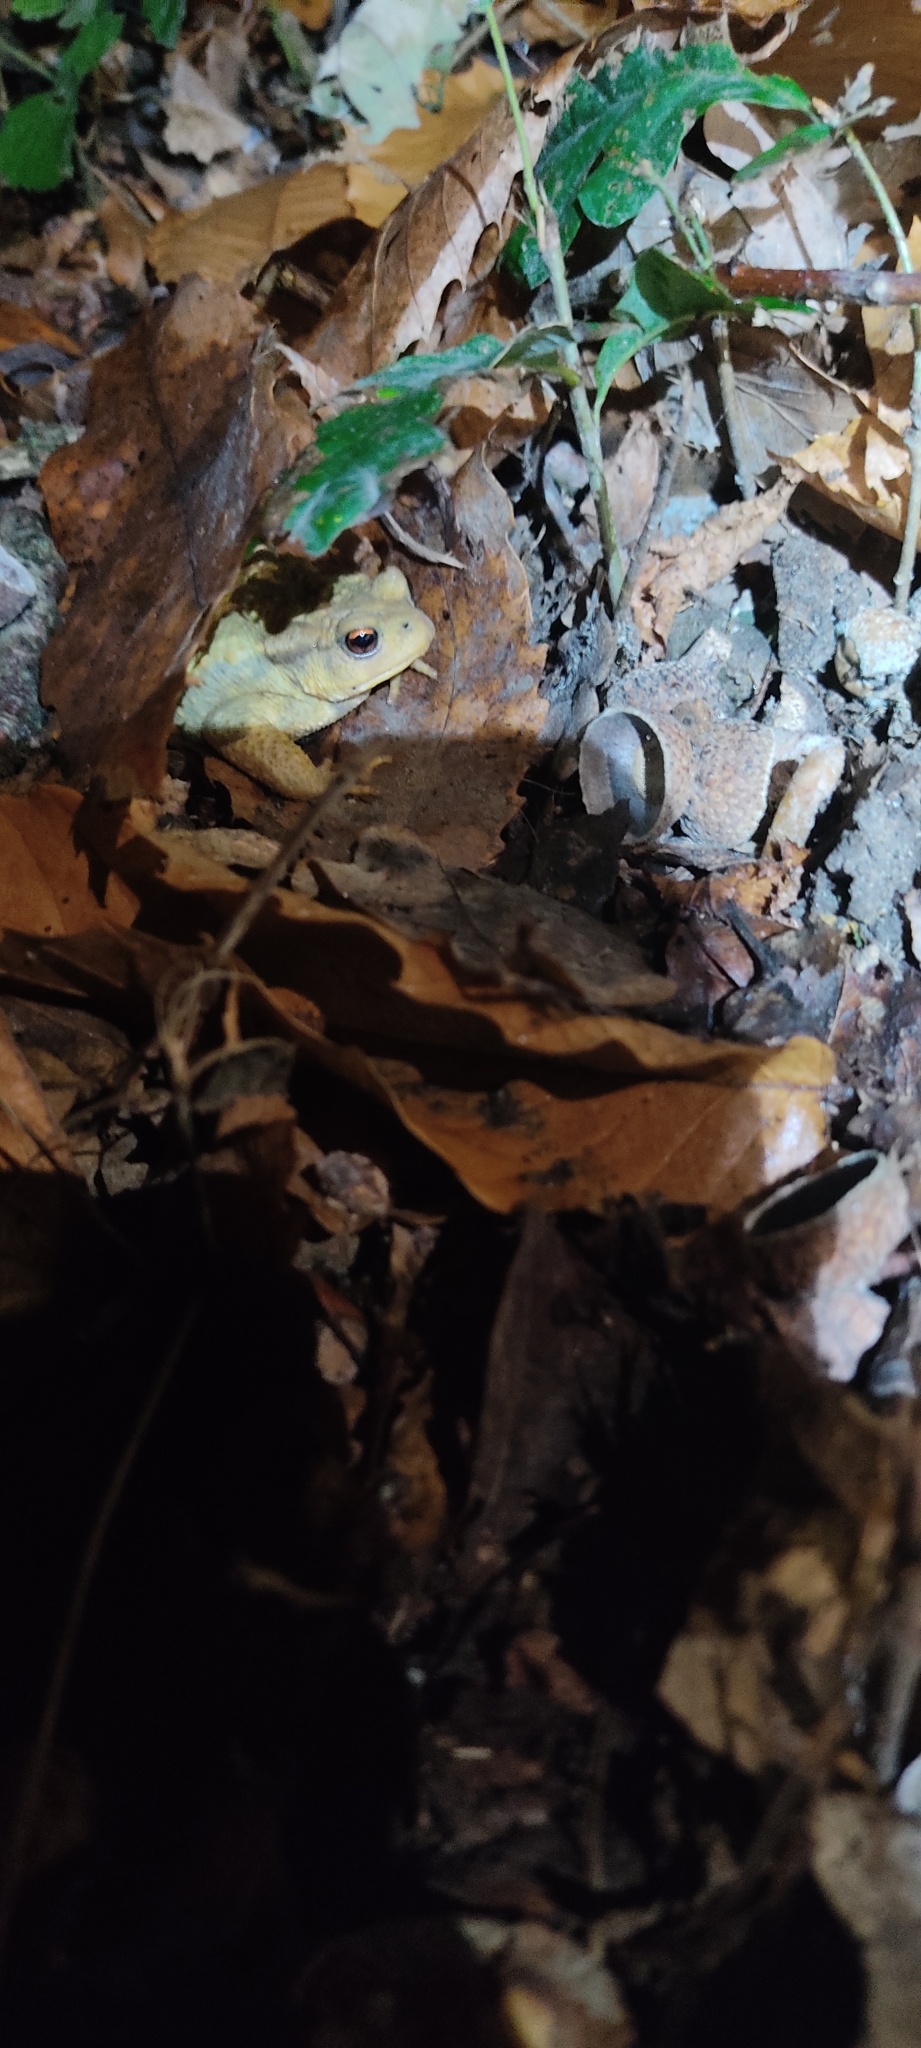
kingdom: Animalia
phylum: Chordata
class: Amphibia
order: Anura
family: Bufonidae
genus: Bufo
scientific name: Bufo spinosus
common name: Western common toad
